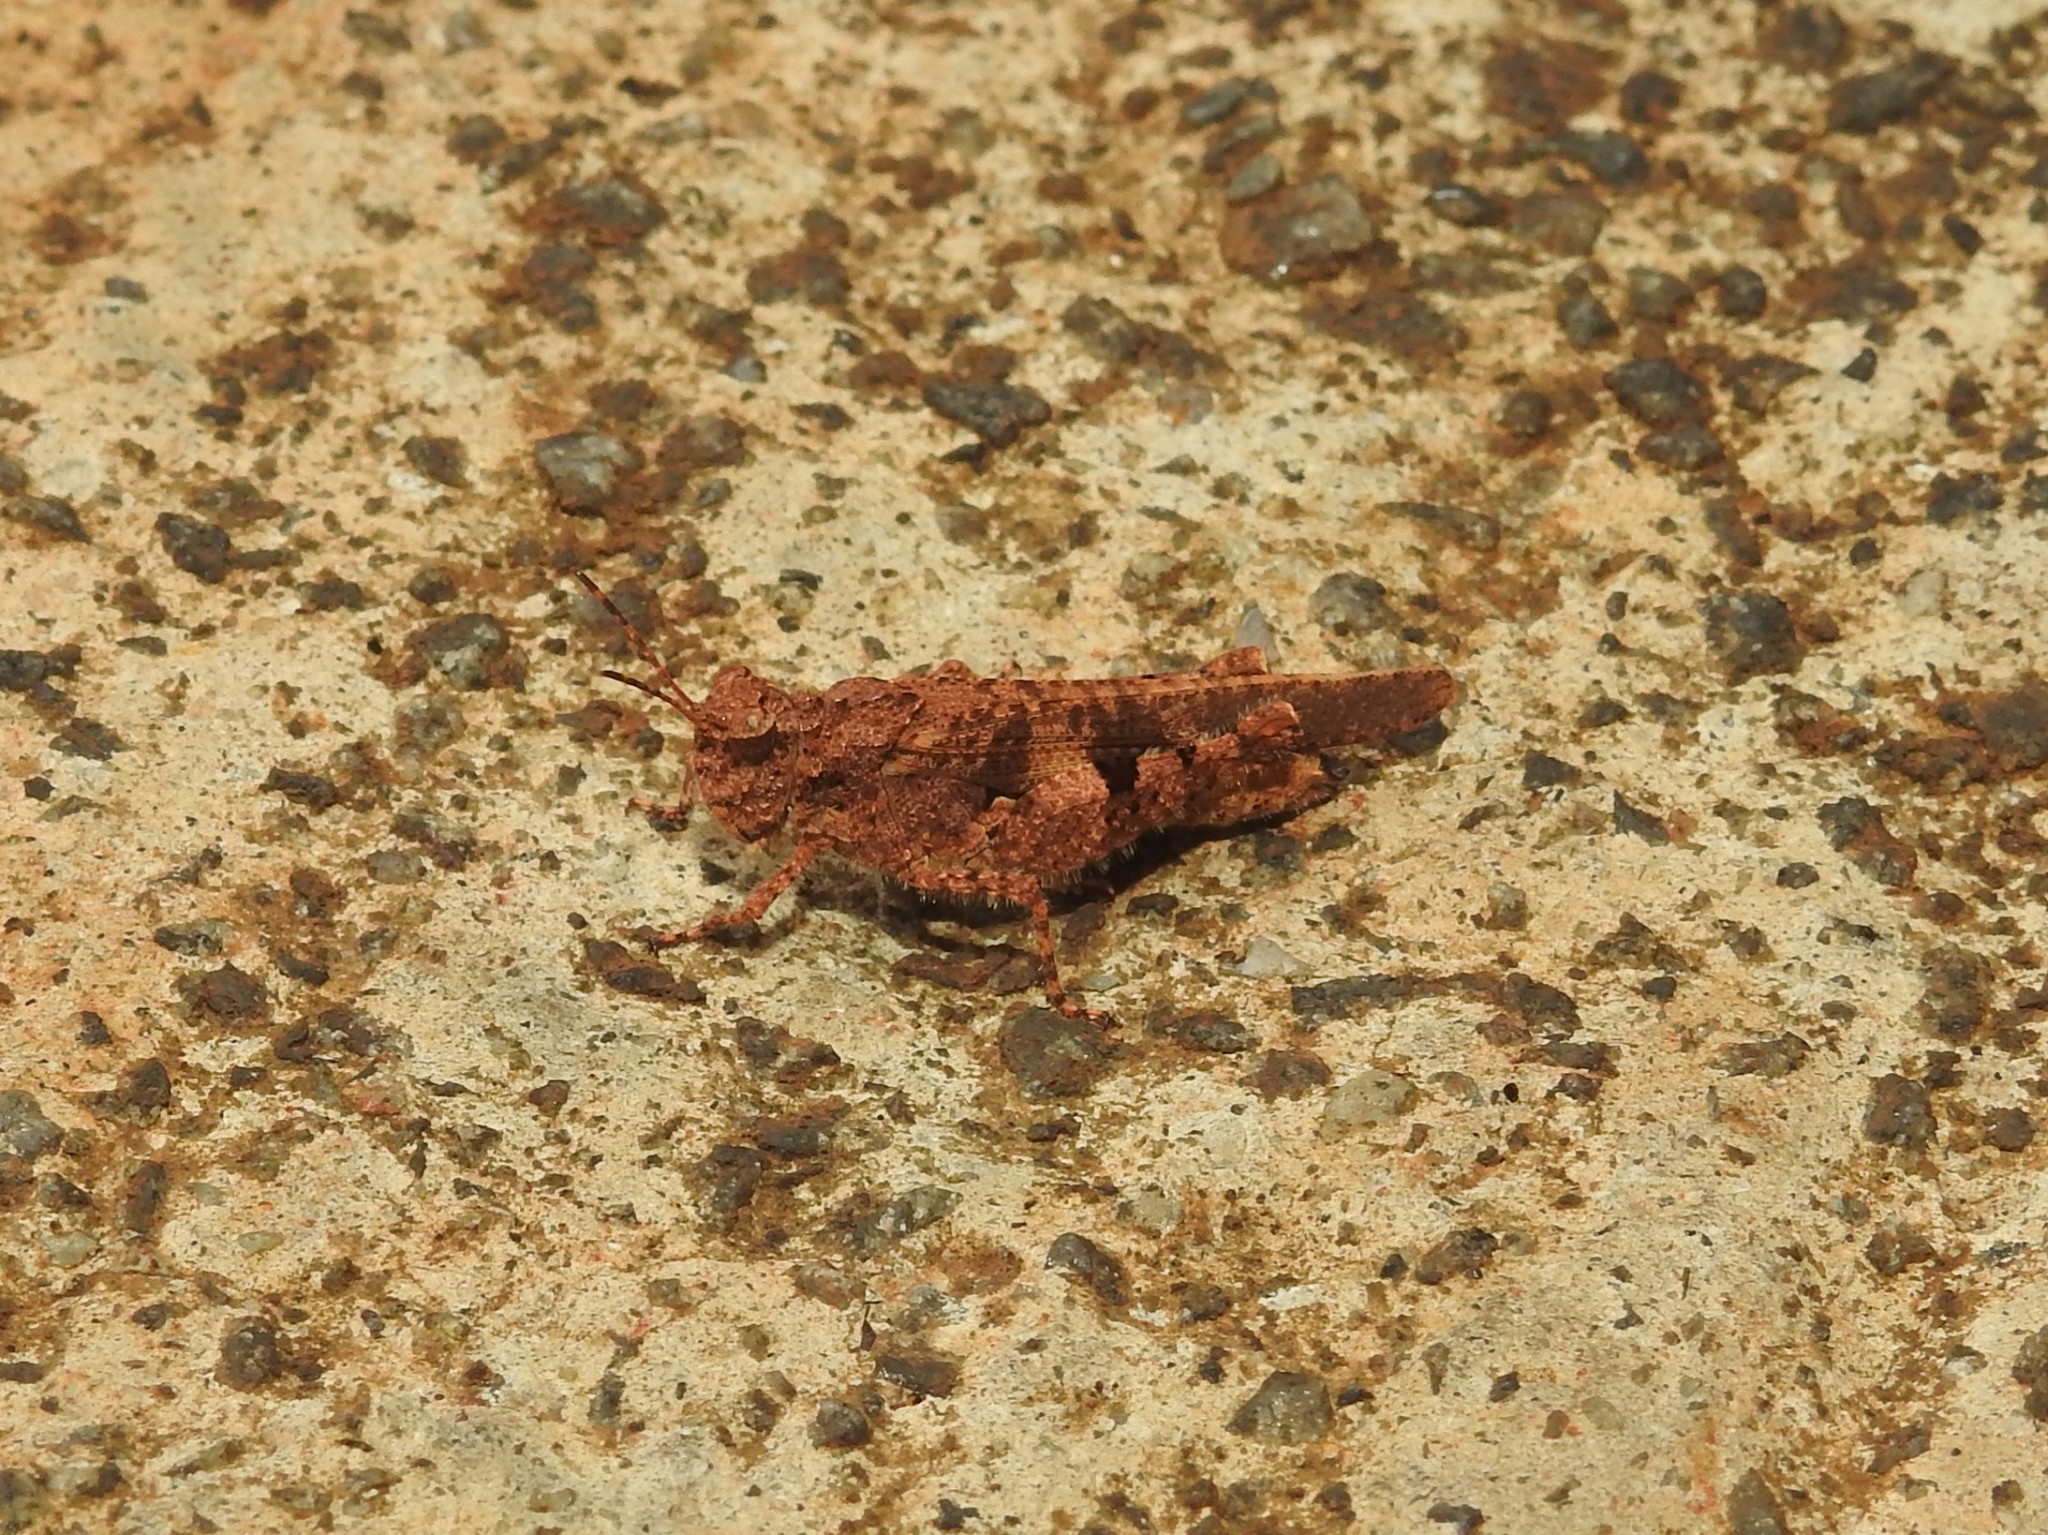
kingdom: Animalia
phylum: Arthropoda
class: Insecta
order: Orthoptera
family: Acrididae
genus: Trilophidia
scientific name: Trilophidia annulata
